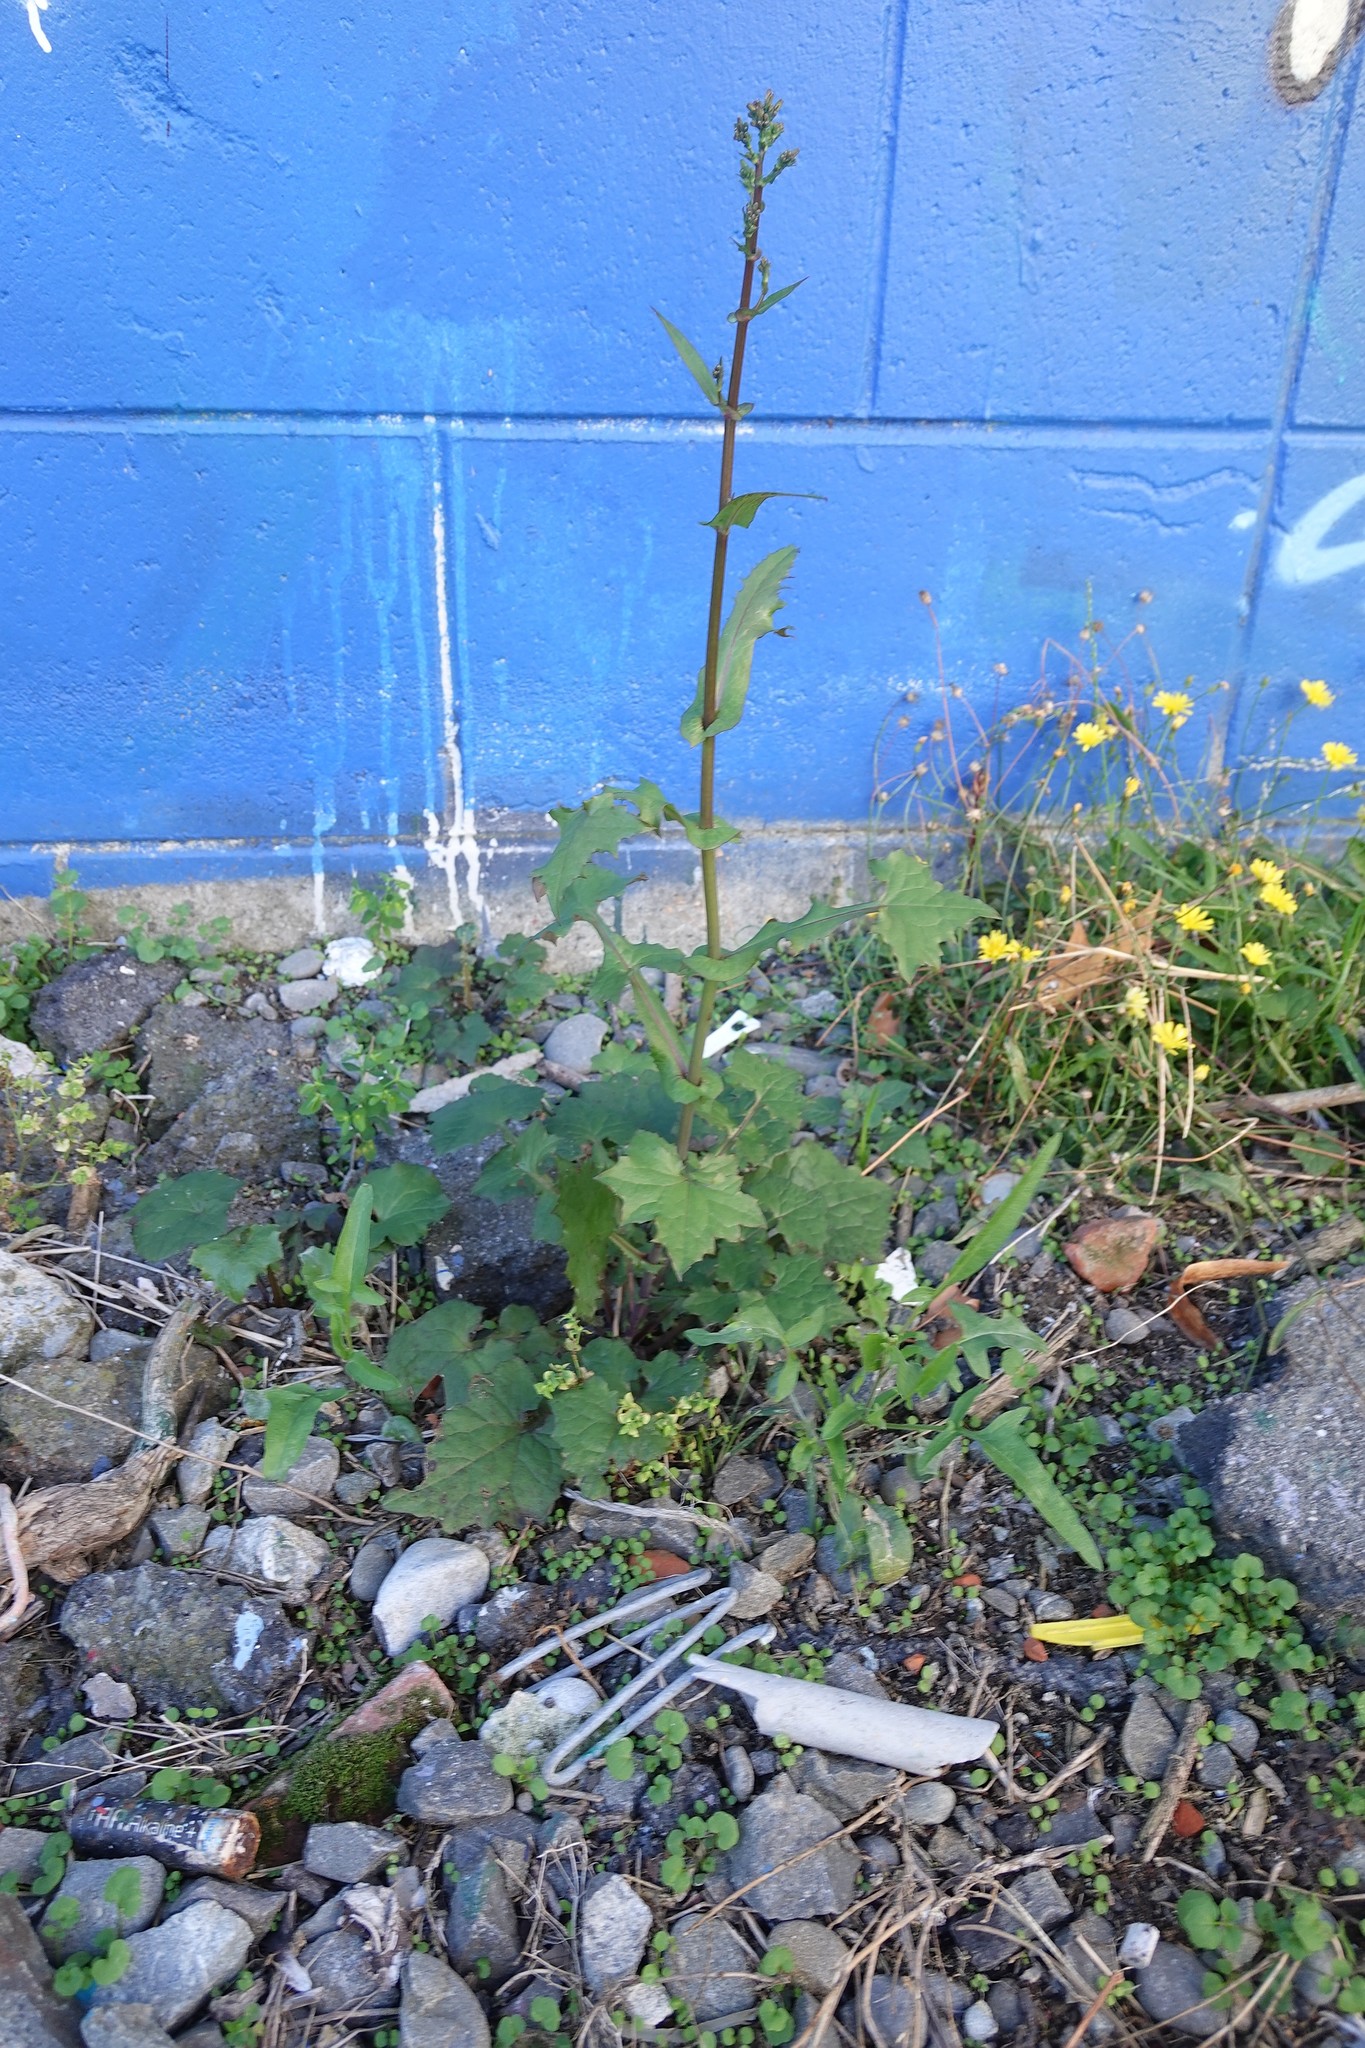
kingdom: Plantae
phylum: Tracheophyta
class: Magnoliopsida
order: Asterales
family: Asteraceae
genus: Mycelis
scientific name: Mycelis muralis
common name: Wall lettuce
